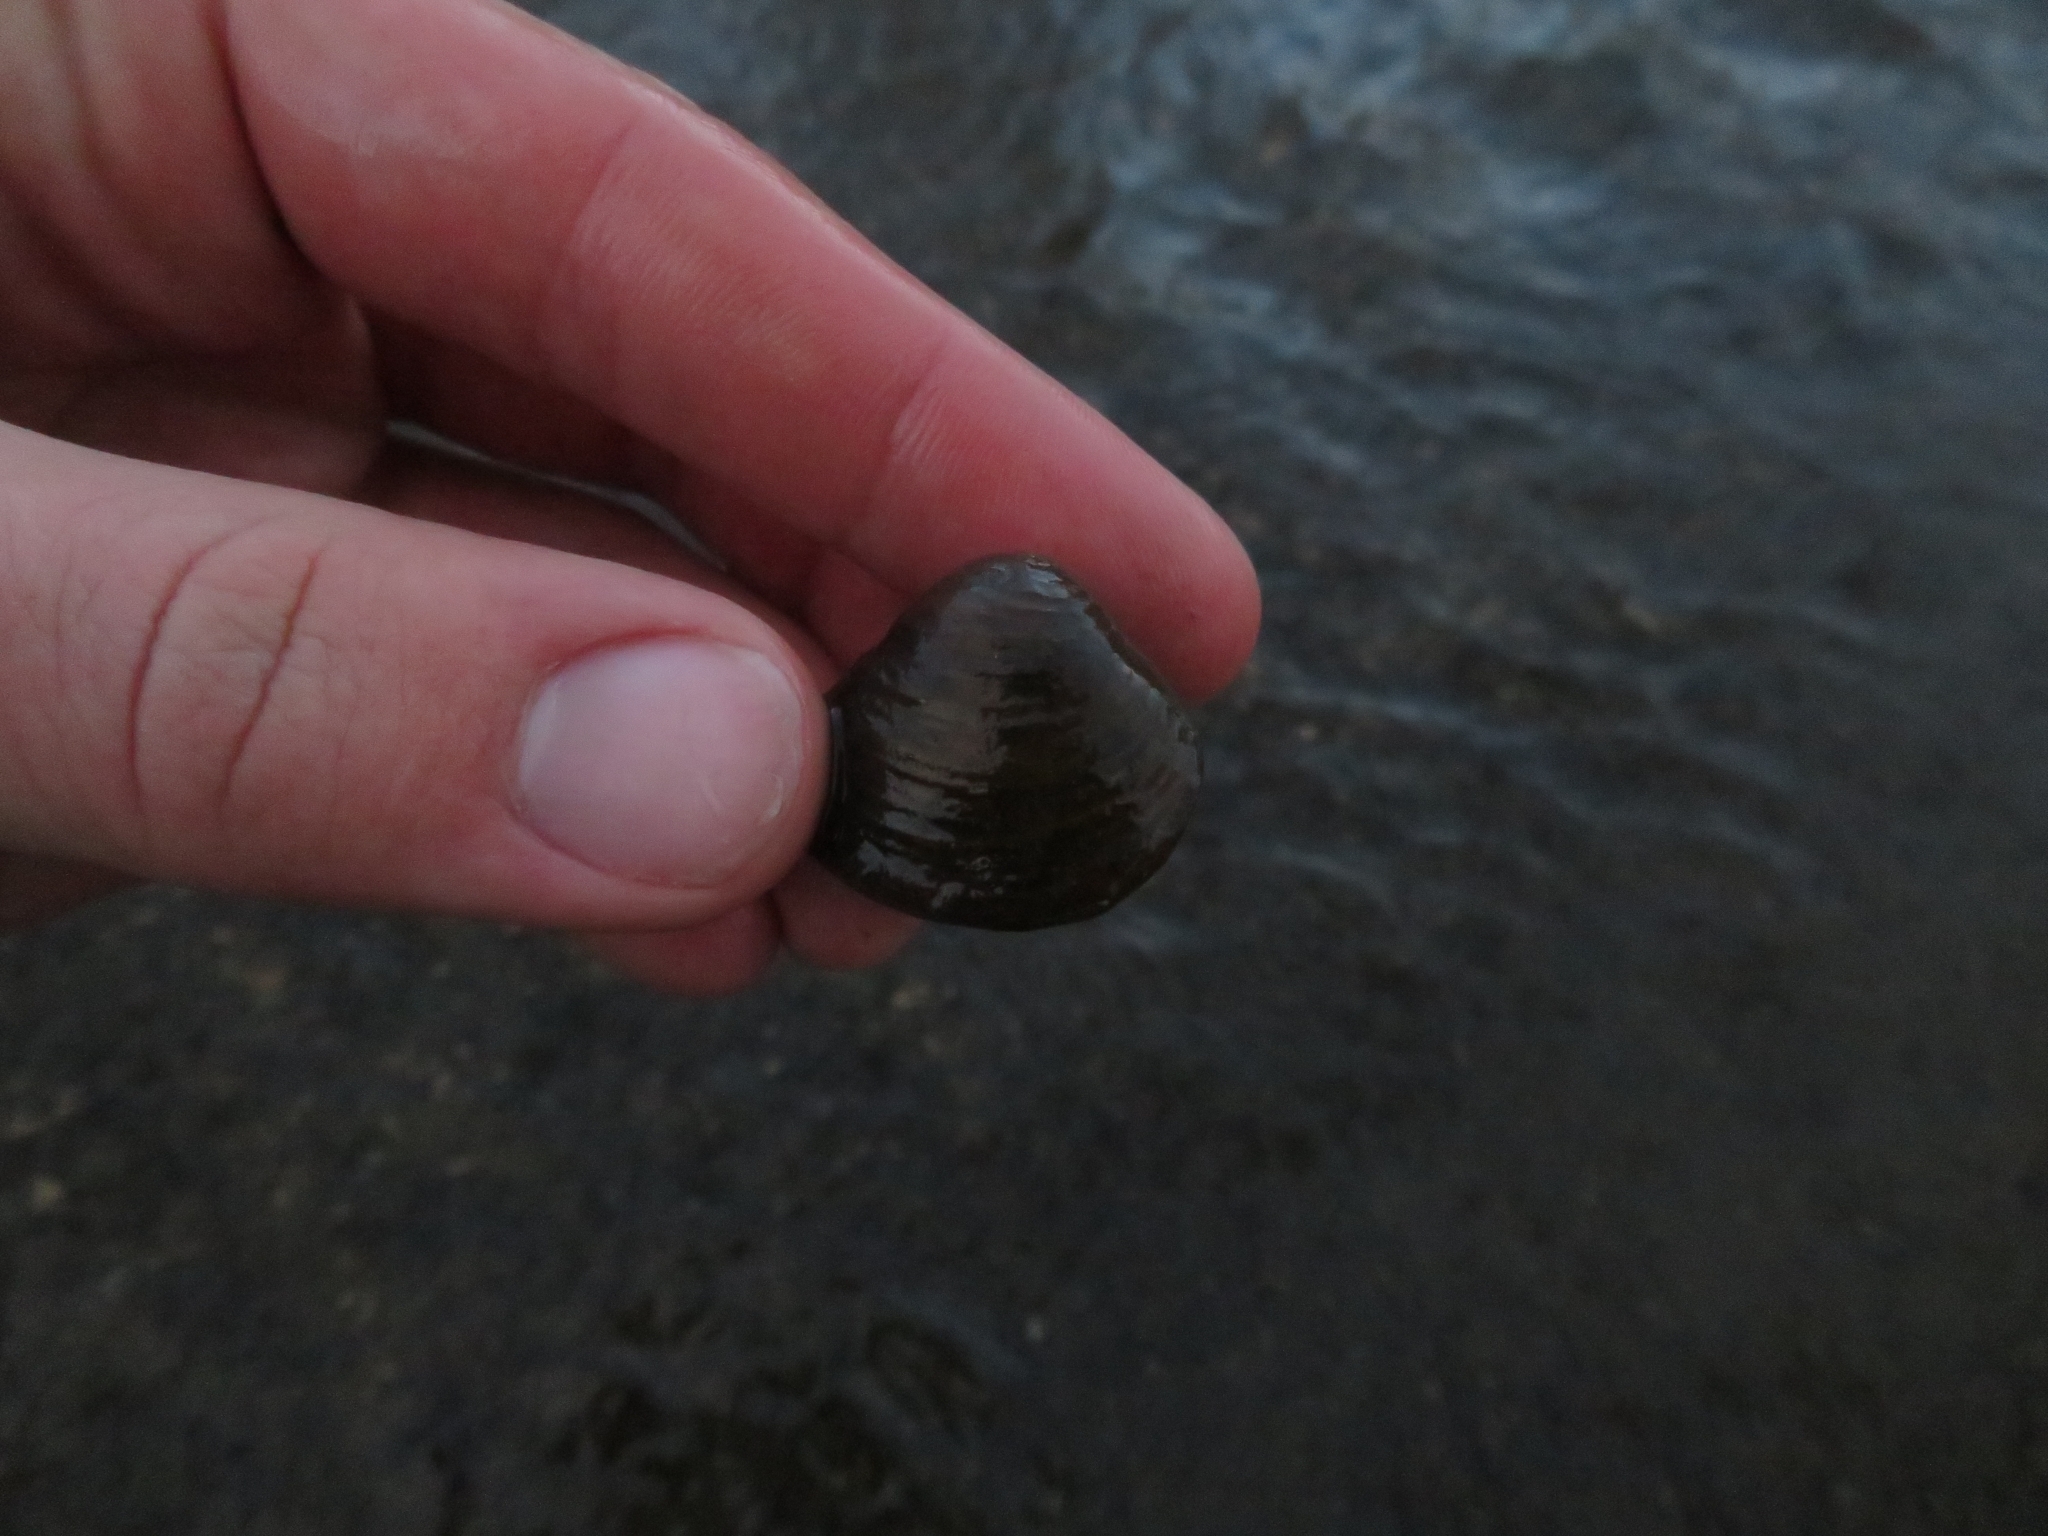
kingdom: Animalia
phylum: Mollusca
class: Bivalvia
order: Venerida
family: Cyrenidae
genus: Corbicula
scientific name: Corbicula fluminea
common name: Asian clam
